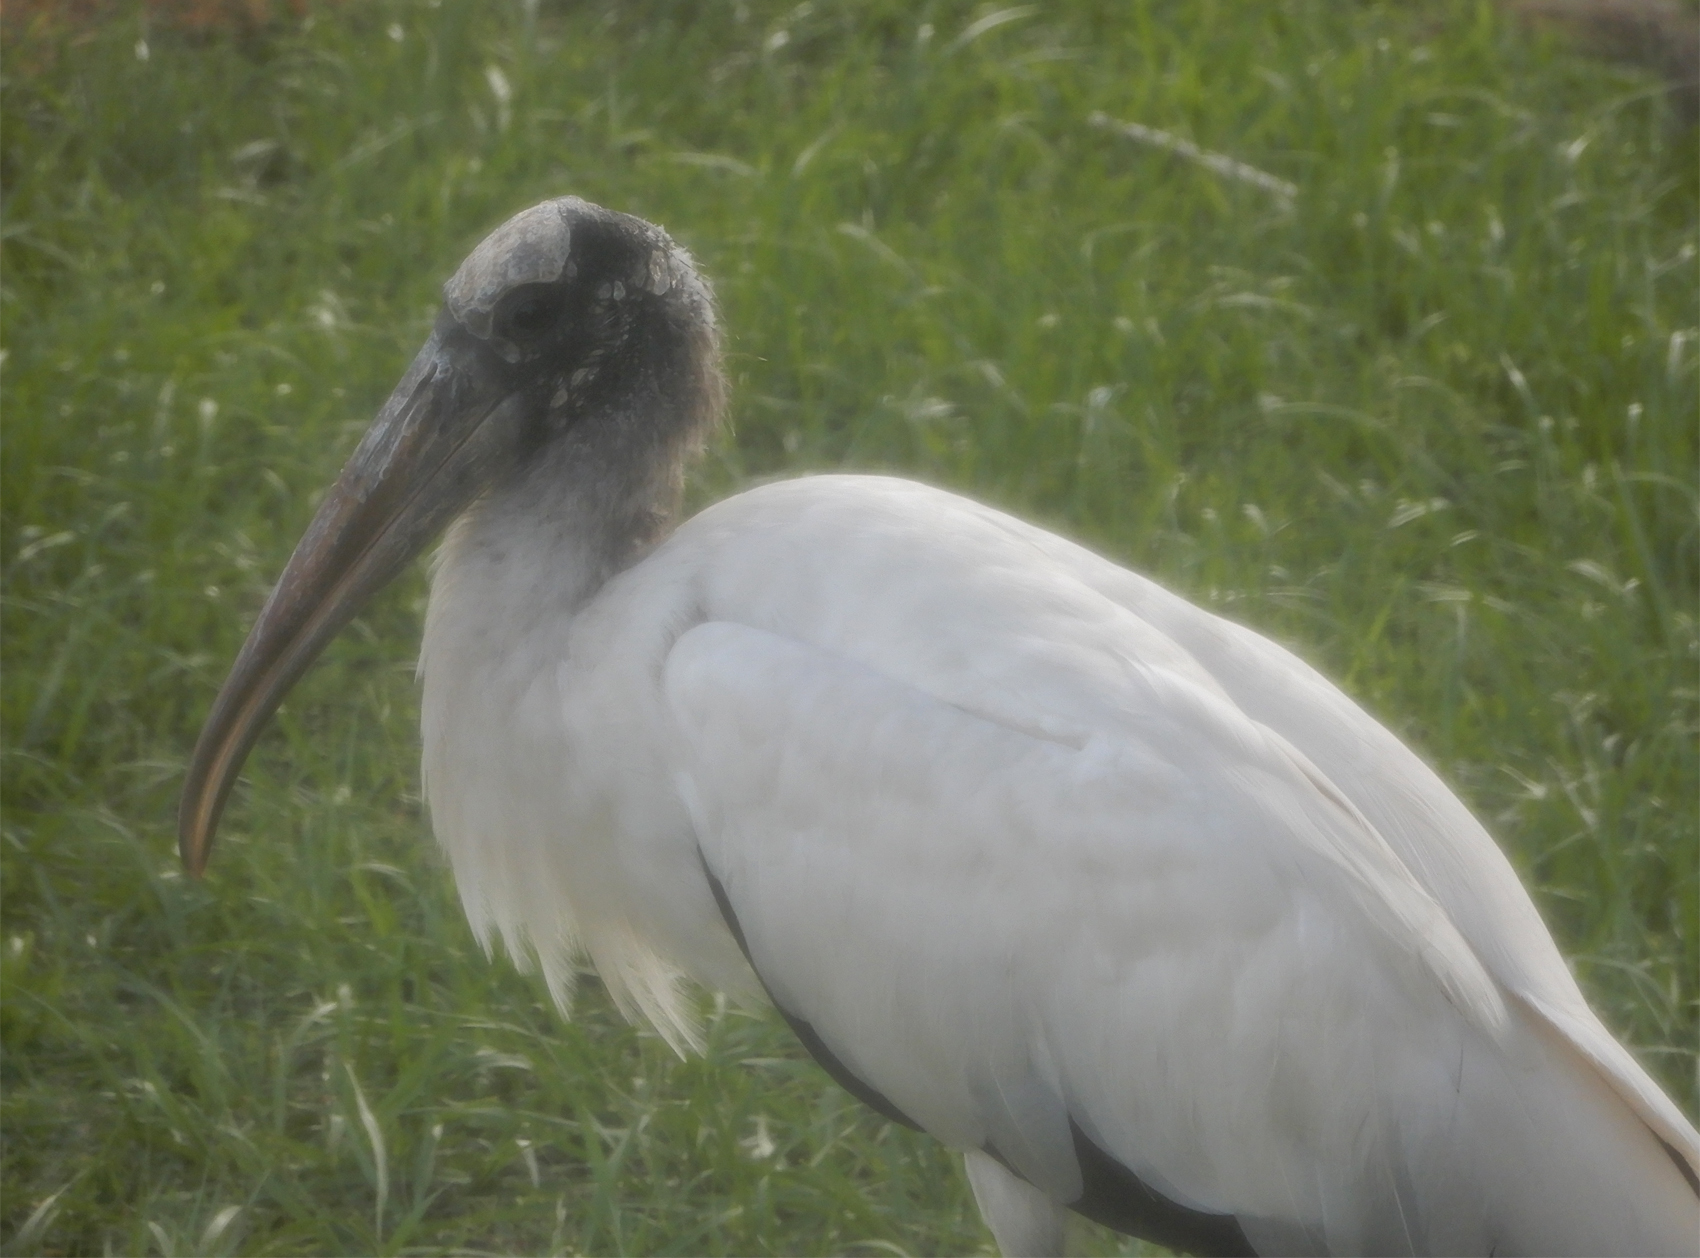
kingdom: Animalia
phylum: Chordata
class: Aves
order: Ciconiiformes
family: Ciconiidae
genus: Mycteria
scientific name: Mycteria americana
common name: Wood stork
